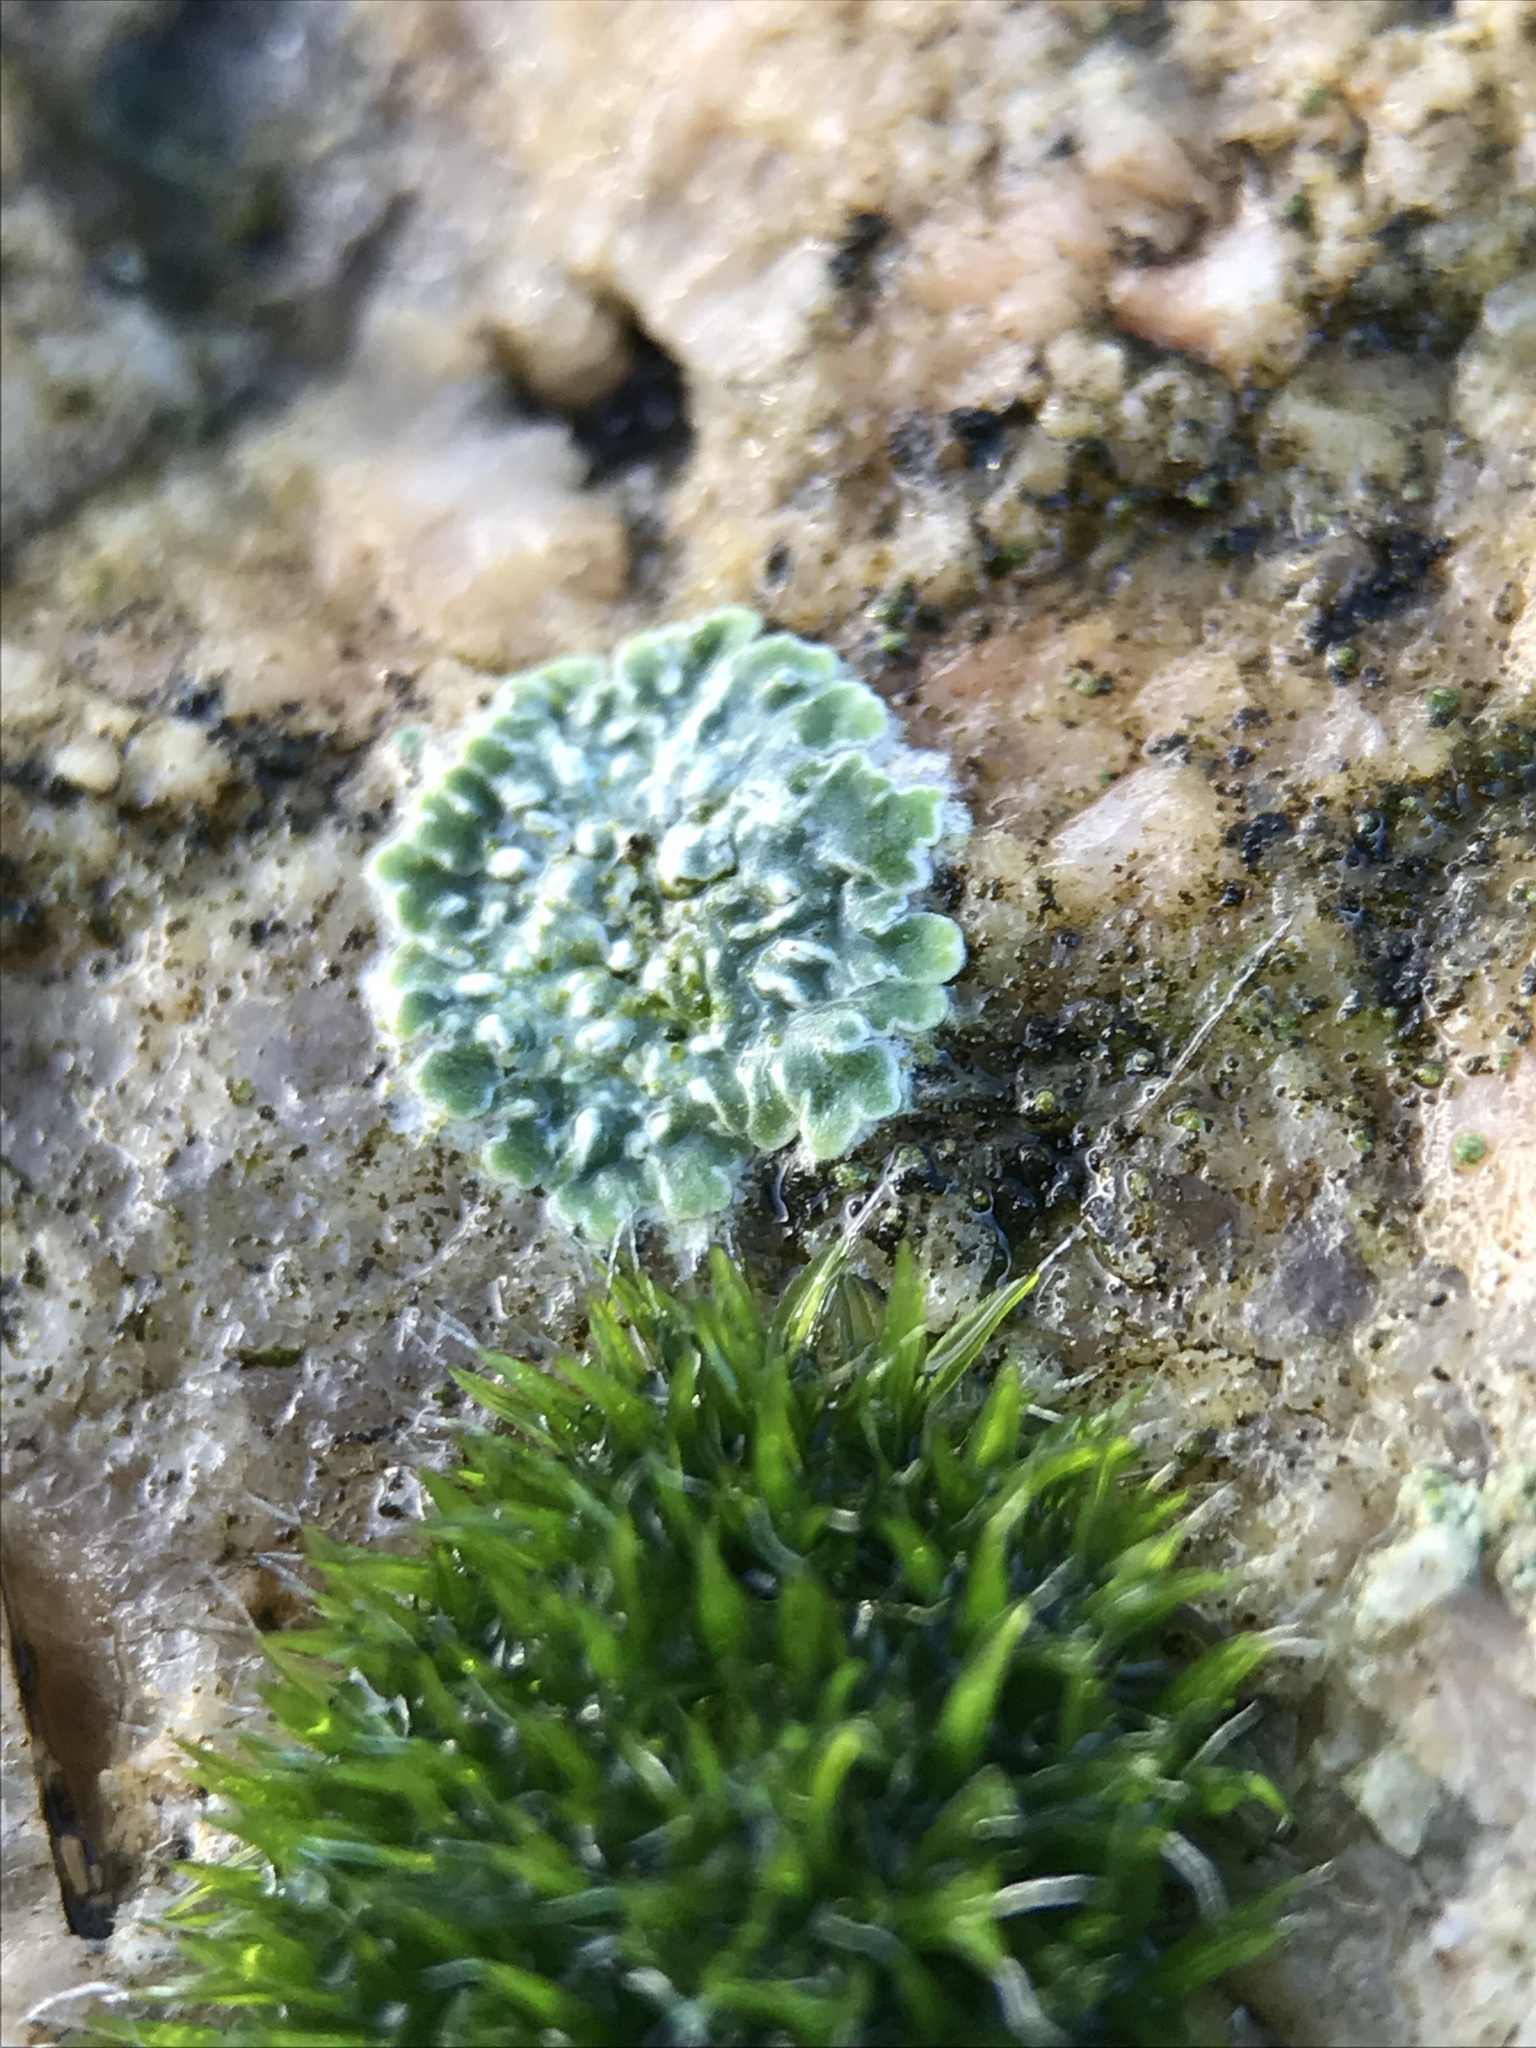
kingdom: Fungi
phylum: Ascomycota
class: Lecanoromycetes
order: Lecanorales
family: Lecanoraceae
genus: Protoparmeliopsis
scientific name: Protoparmeliopsis muralis
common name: Stonewall rim lichen
